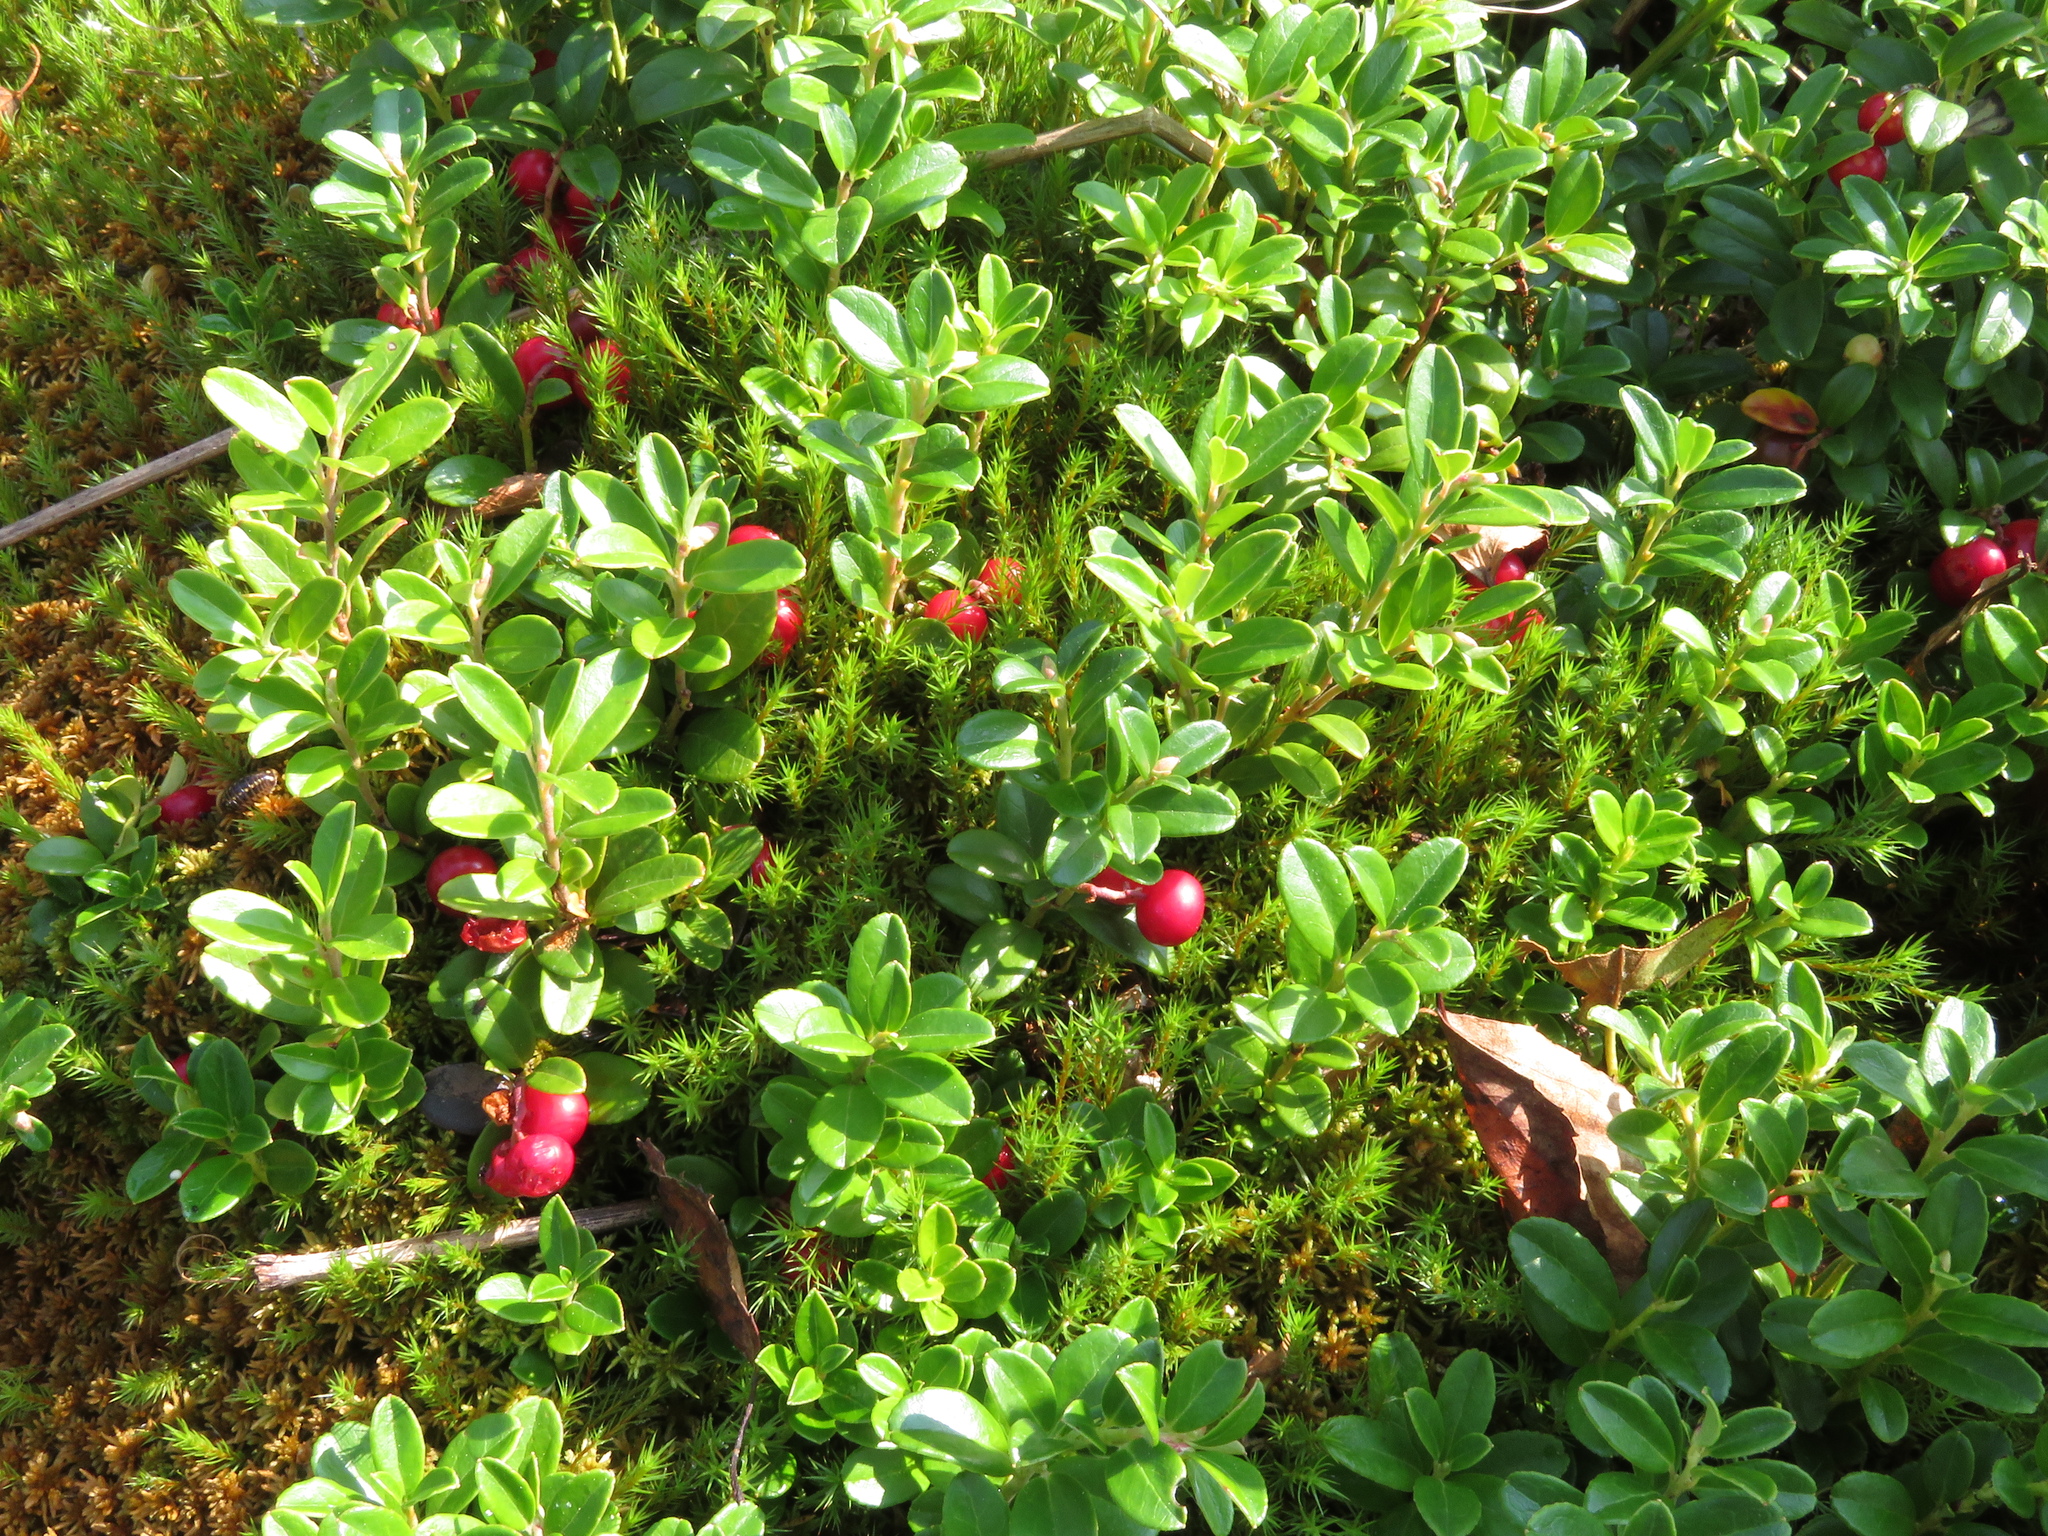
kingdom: Plantae
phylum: Tracheophyta
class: Magnoliopsida
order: Ericales
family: Ericaceae
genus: Vaccinium
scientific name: Vaccinium vitis-idaea
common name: Cowberry
